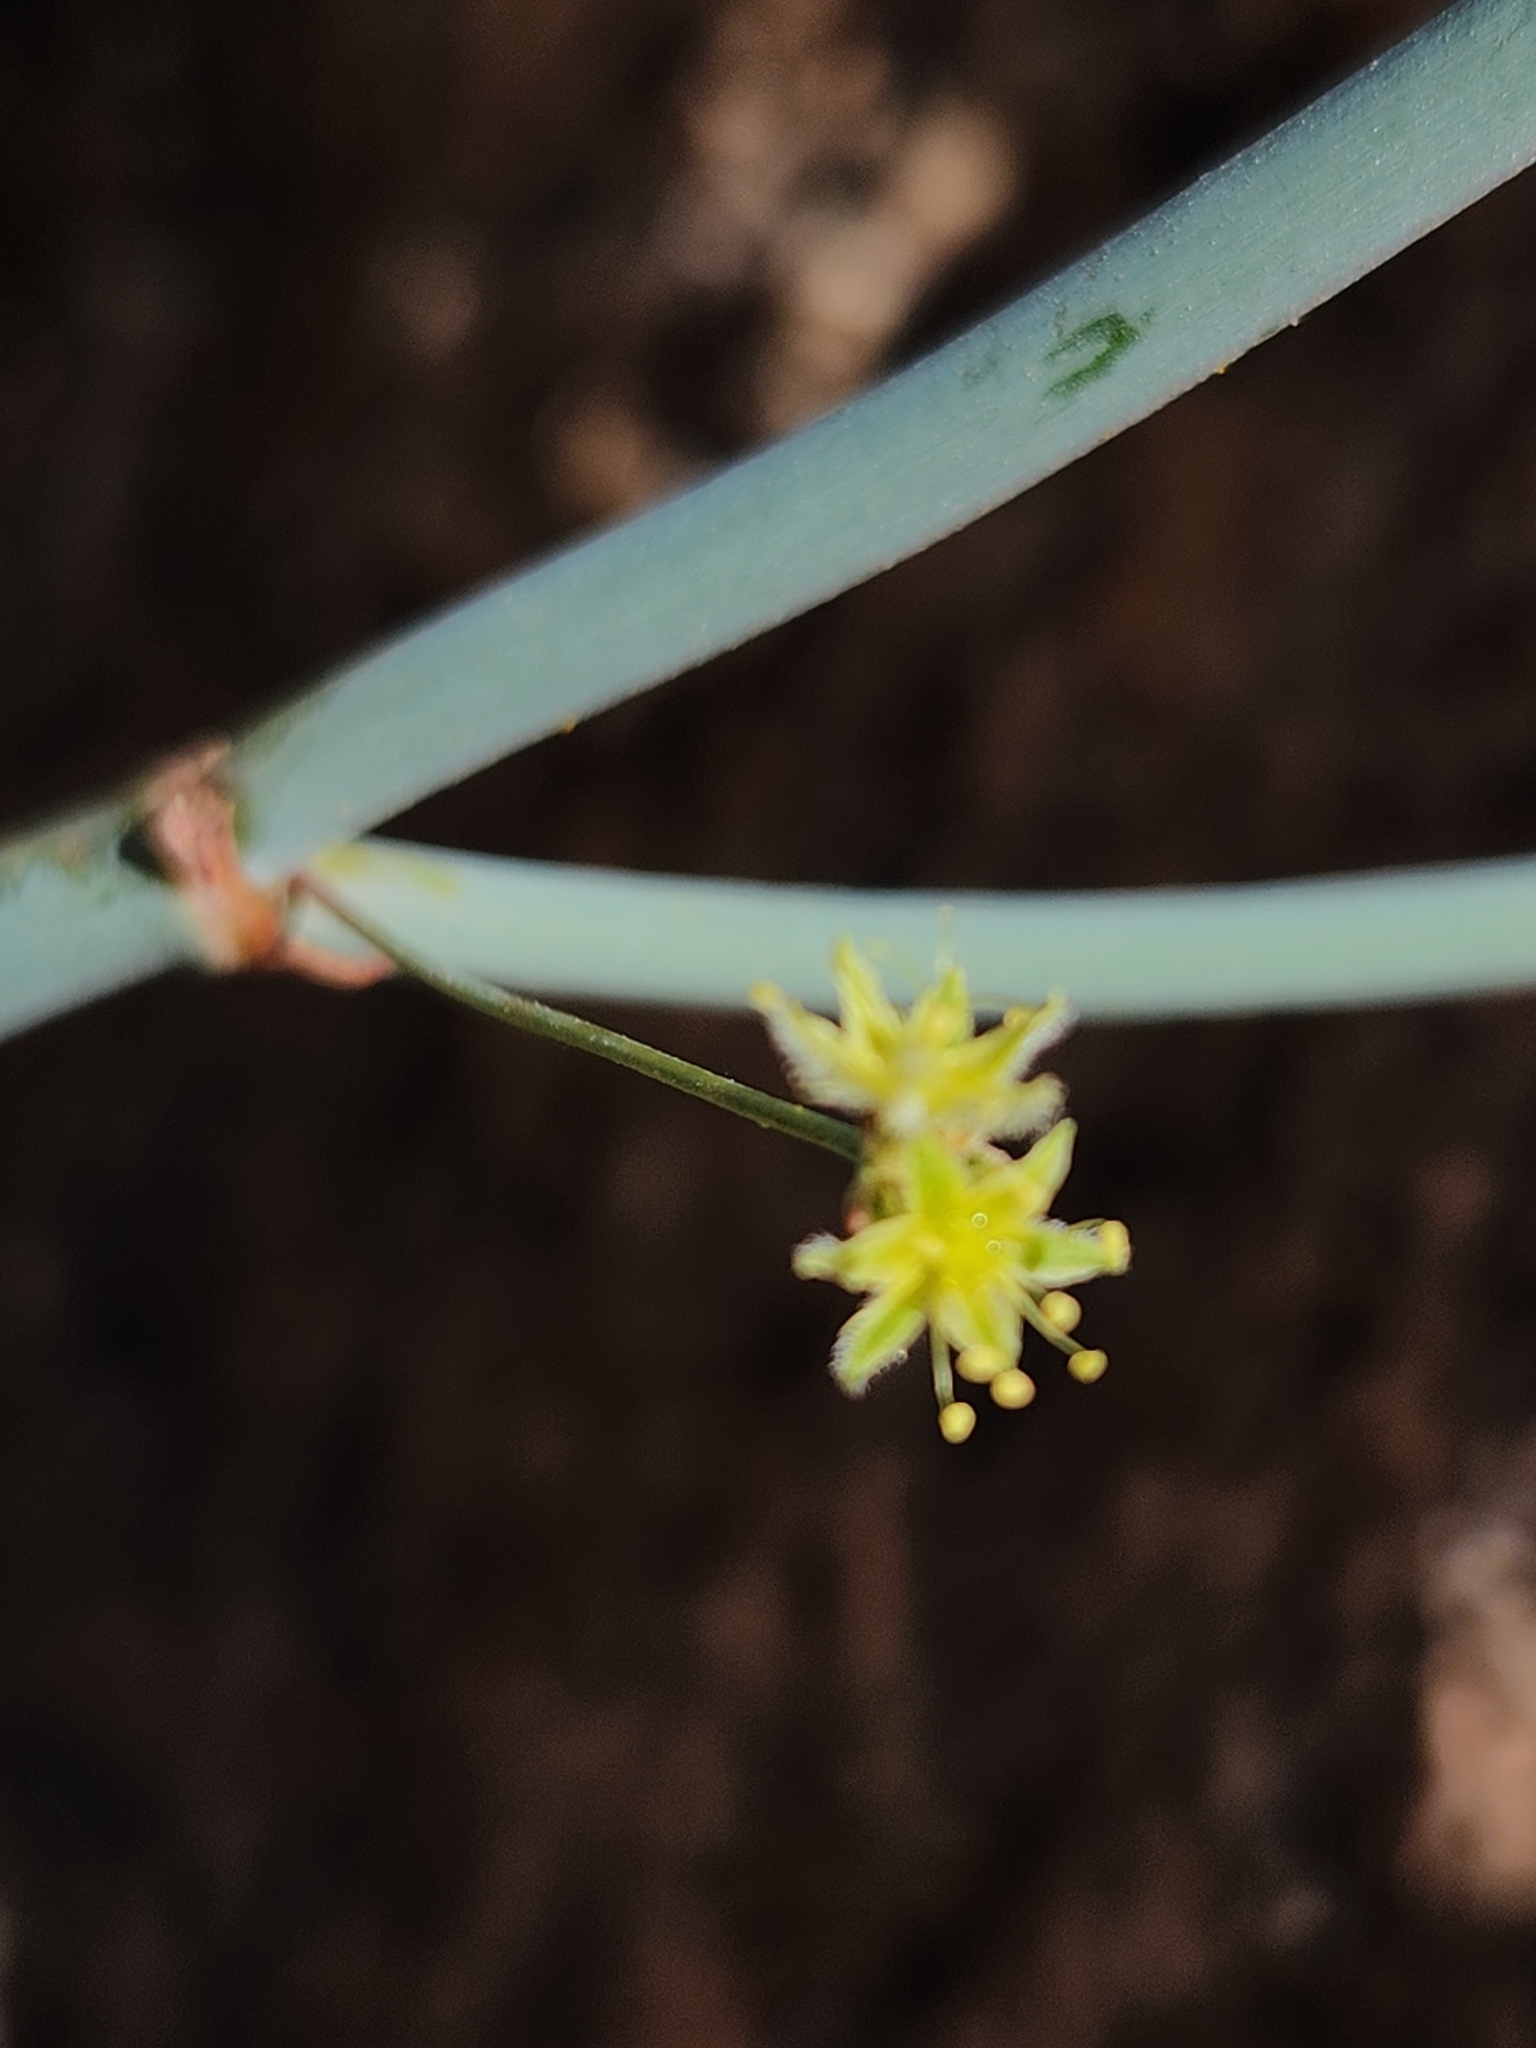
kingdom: Plantae
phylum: Tracheophyta
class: Magnoliopsida
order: Caryophyllales
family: Polygonaceae
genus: Eriogonum
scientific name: Eriogonum inflatum
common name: Desert trumpet
